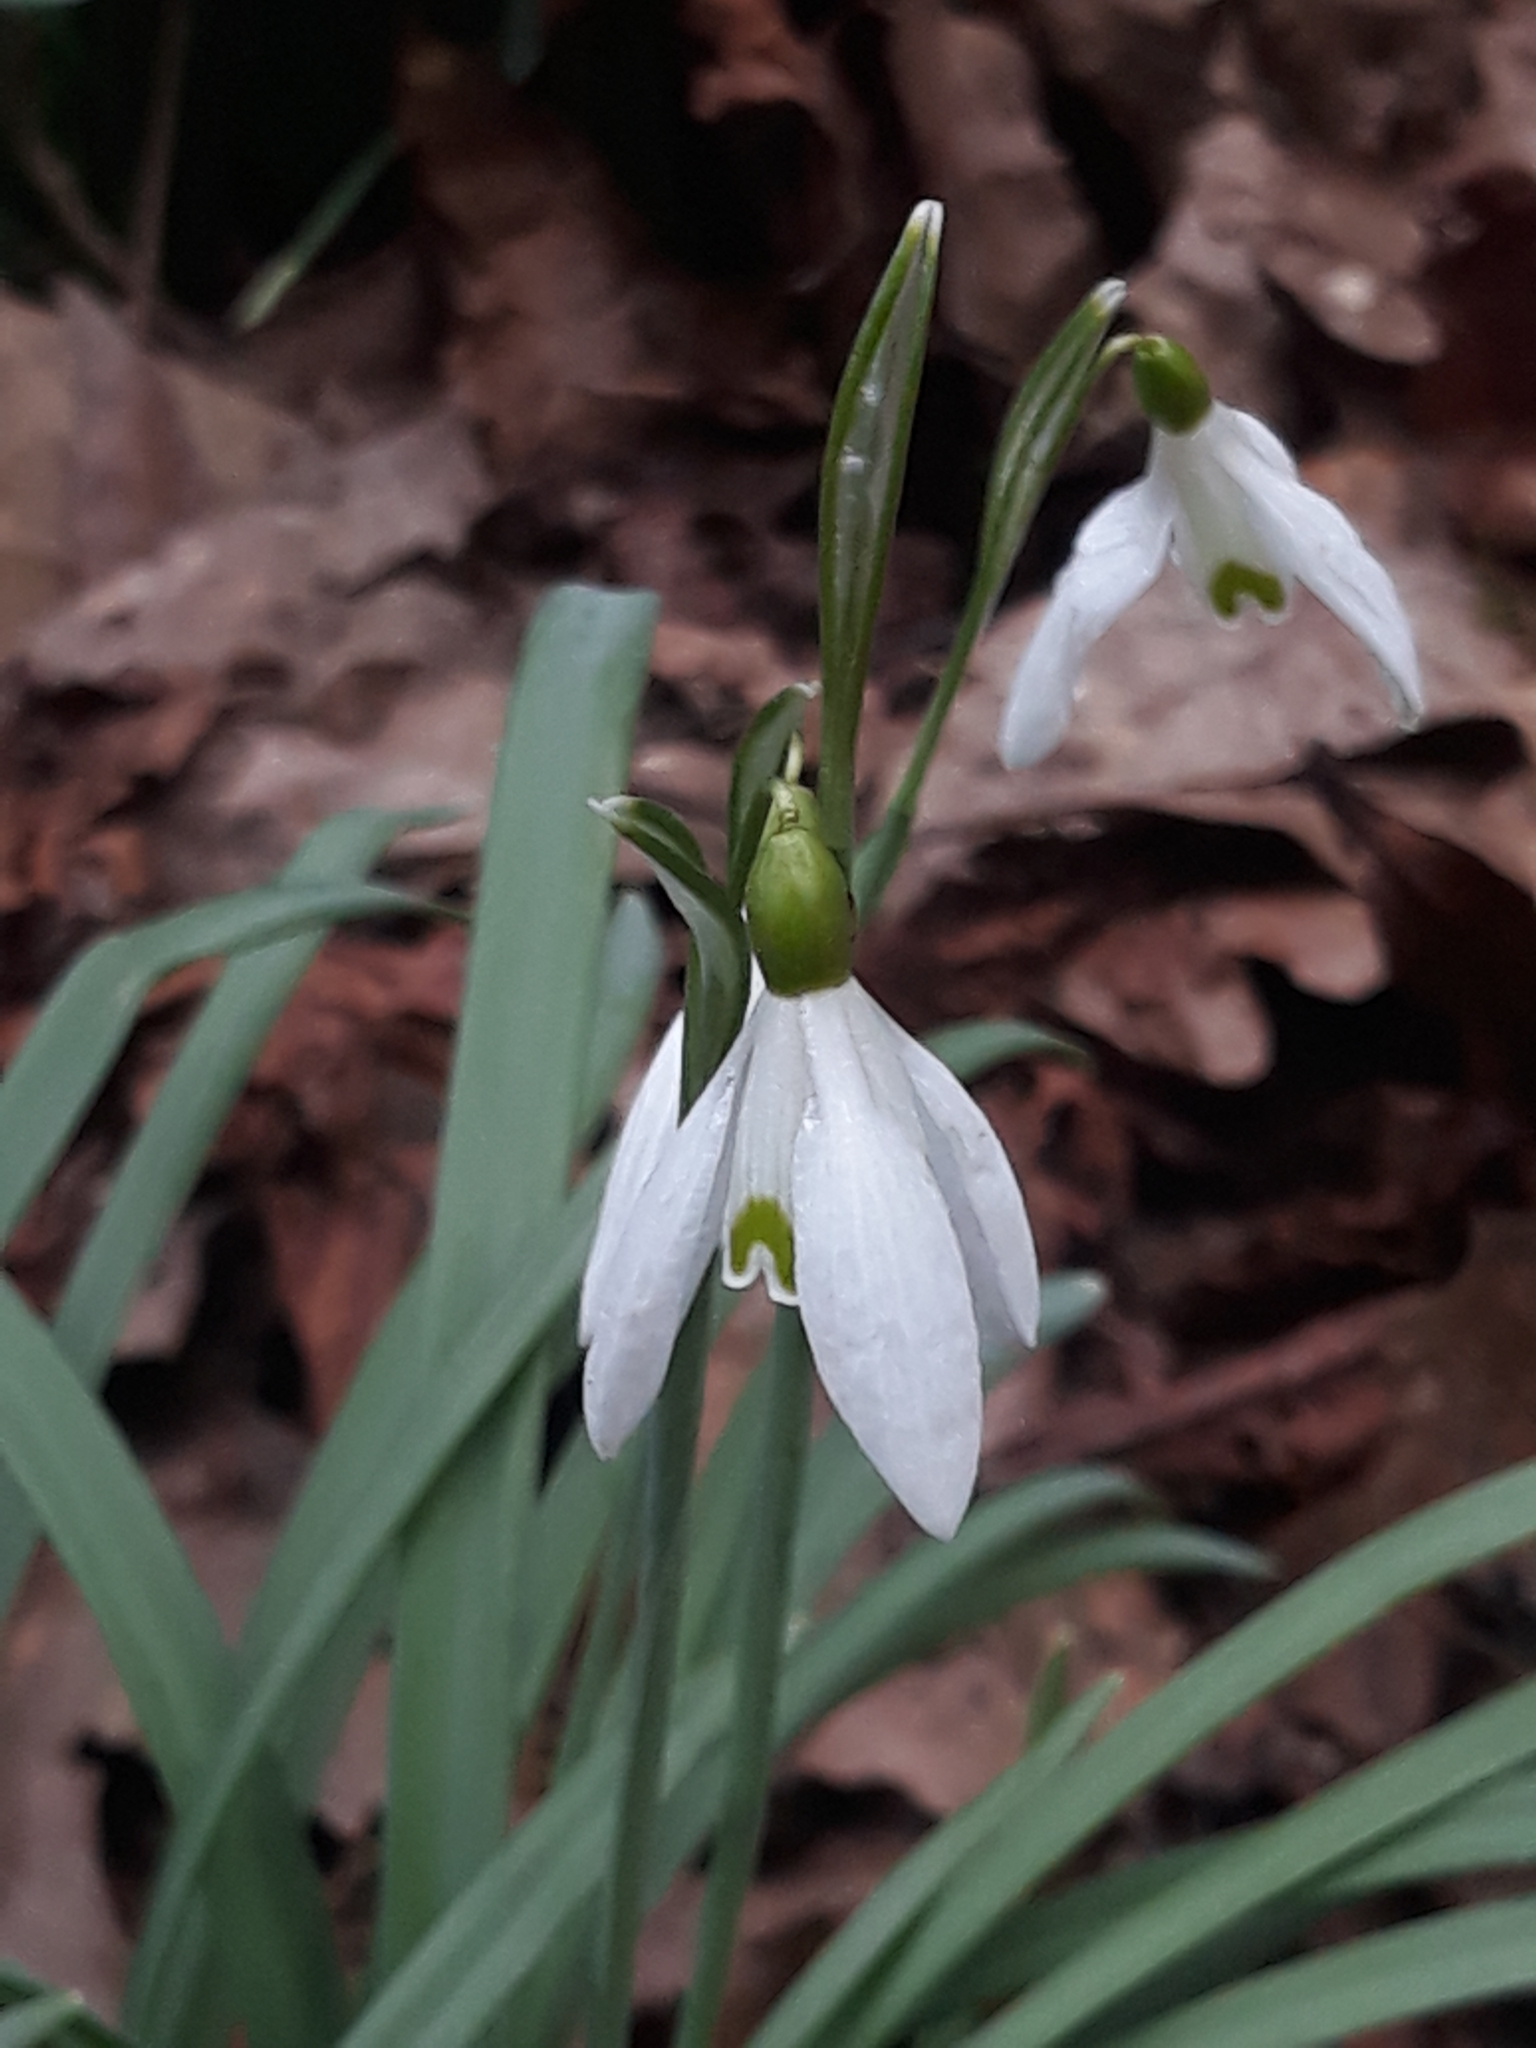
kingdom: Plantae
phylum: Tracheophyta
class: Liliopsida
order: Asparagales
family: Amaryllidaceae
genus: Galanthus
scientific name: Galanthus nivalis
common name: Snowdrop
